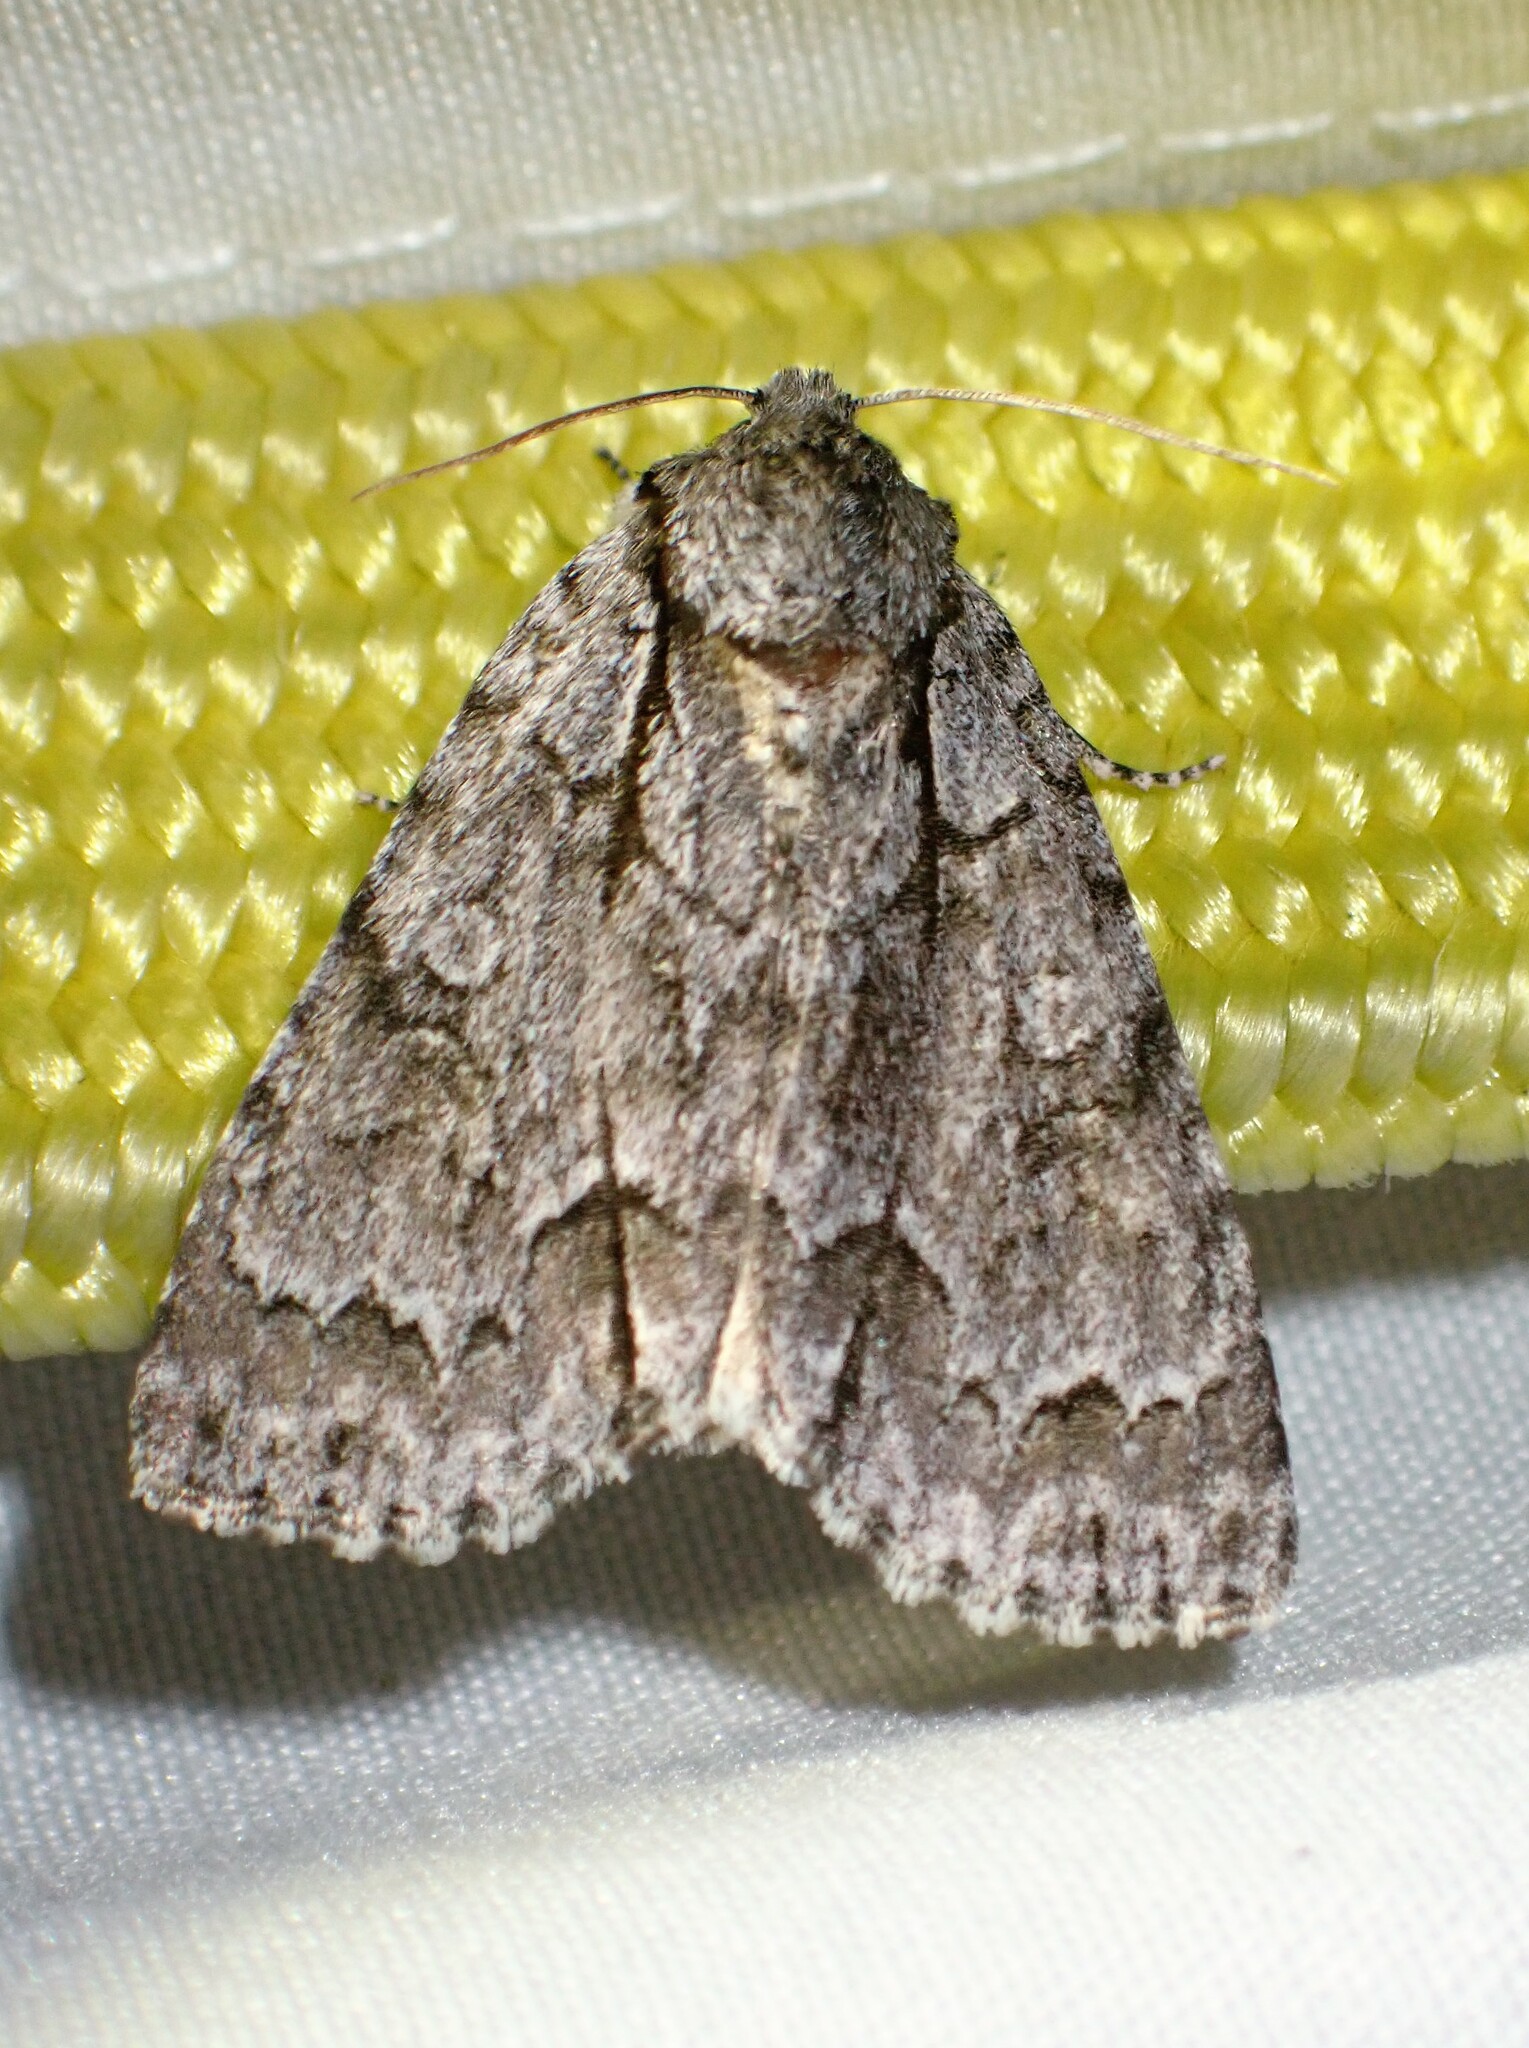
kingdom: Animalia
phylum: Arthropoda
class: Insecta
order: Lepidoptera
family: Noctuidae
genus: Acronicta
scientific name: Acronicta grisea
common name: Gray dagger
